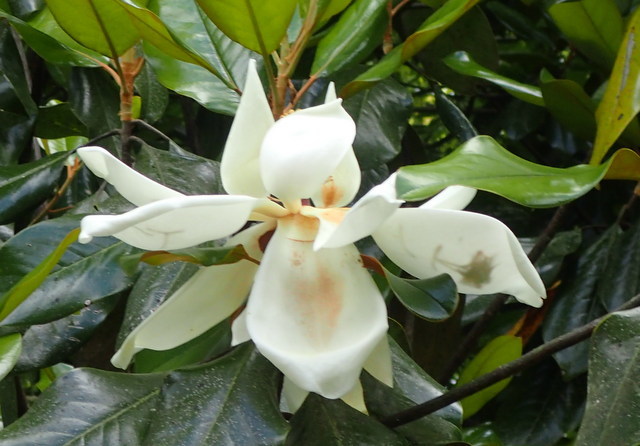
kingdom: Plantae
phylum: Tracheophyta
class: Magnoliopsida
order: Magnoliales
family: Magnoliaceae
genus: Magnolia
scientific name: Magnolia grandiflora
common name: Southern magnolia
